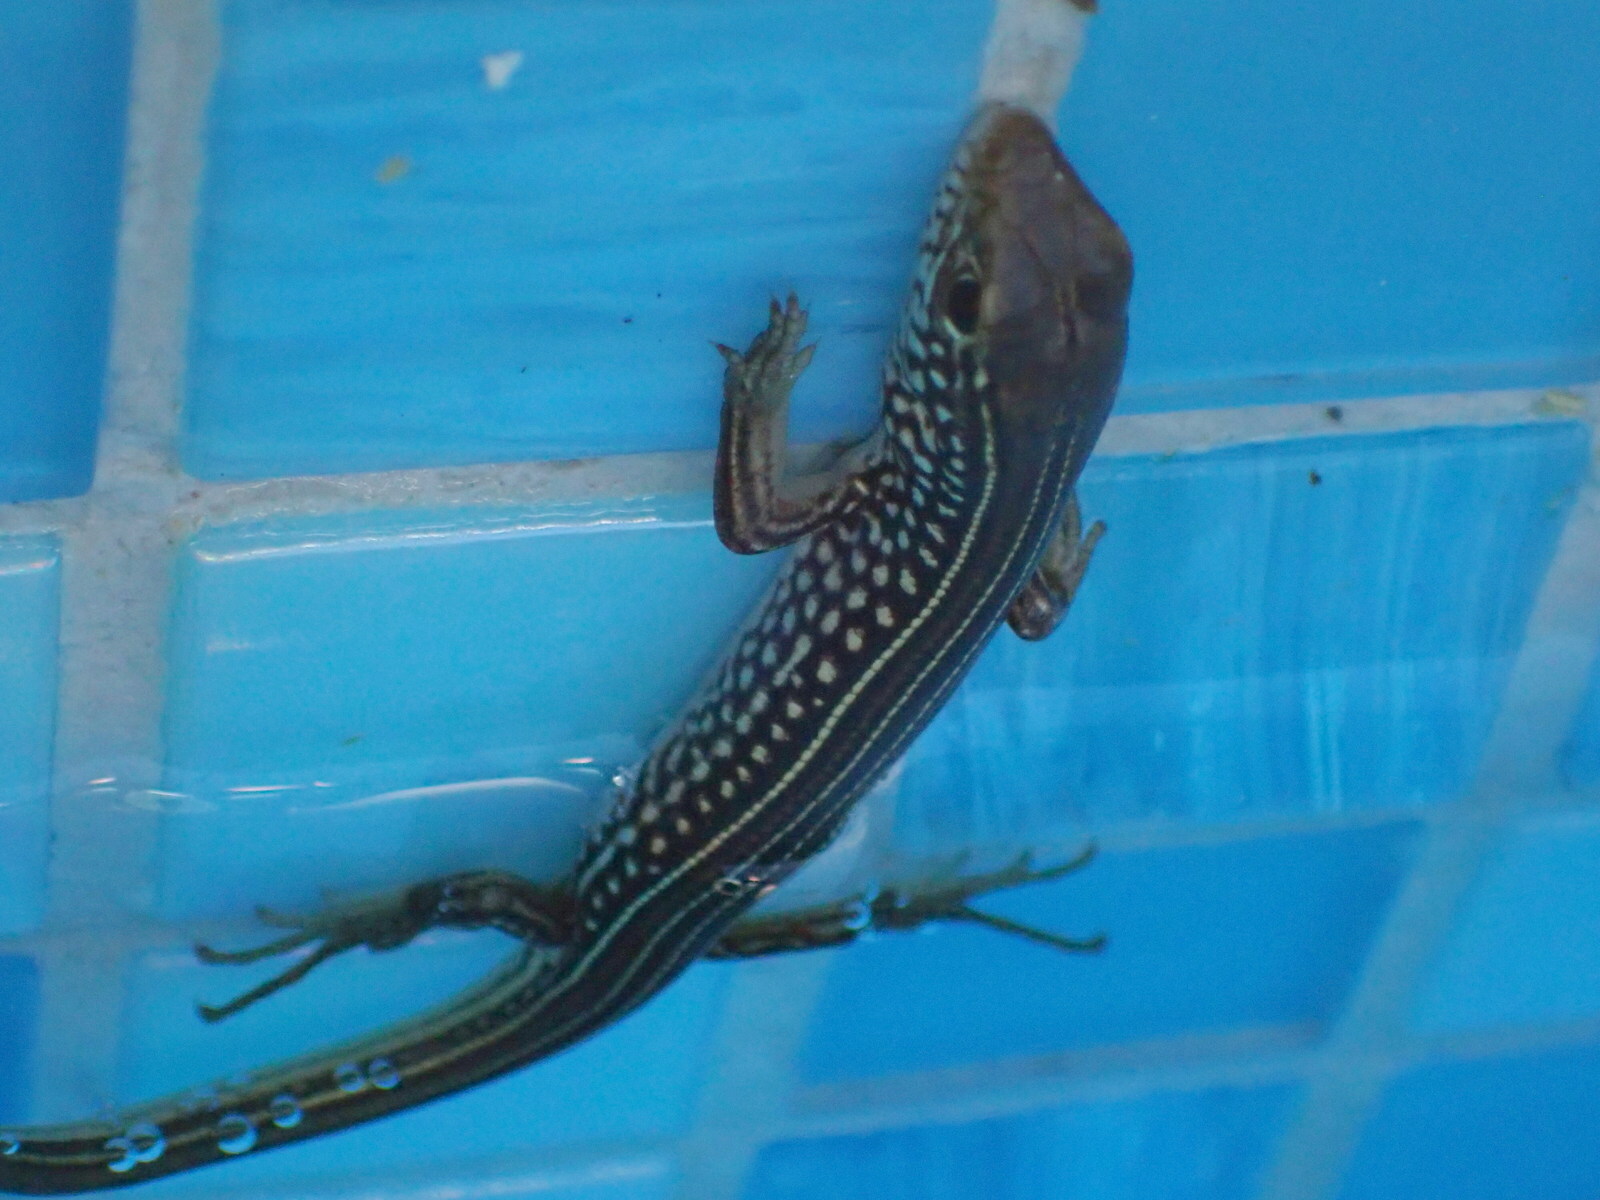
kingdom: Animalia
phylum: Chordata
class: Squamata
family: Scincidae
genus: Ctenotus
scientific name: Ctenotus robustus
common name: Robust ctenotus
